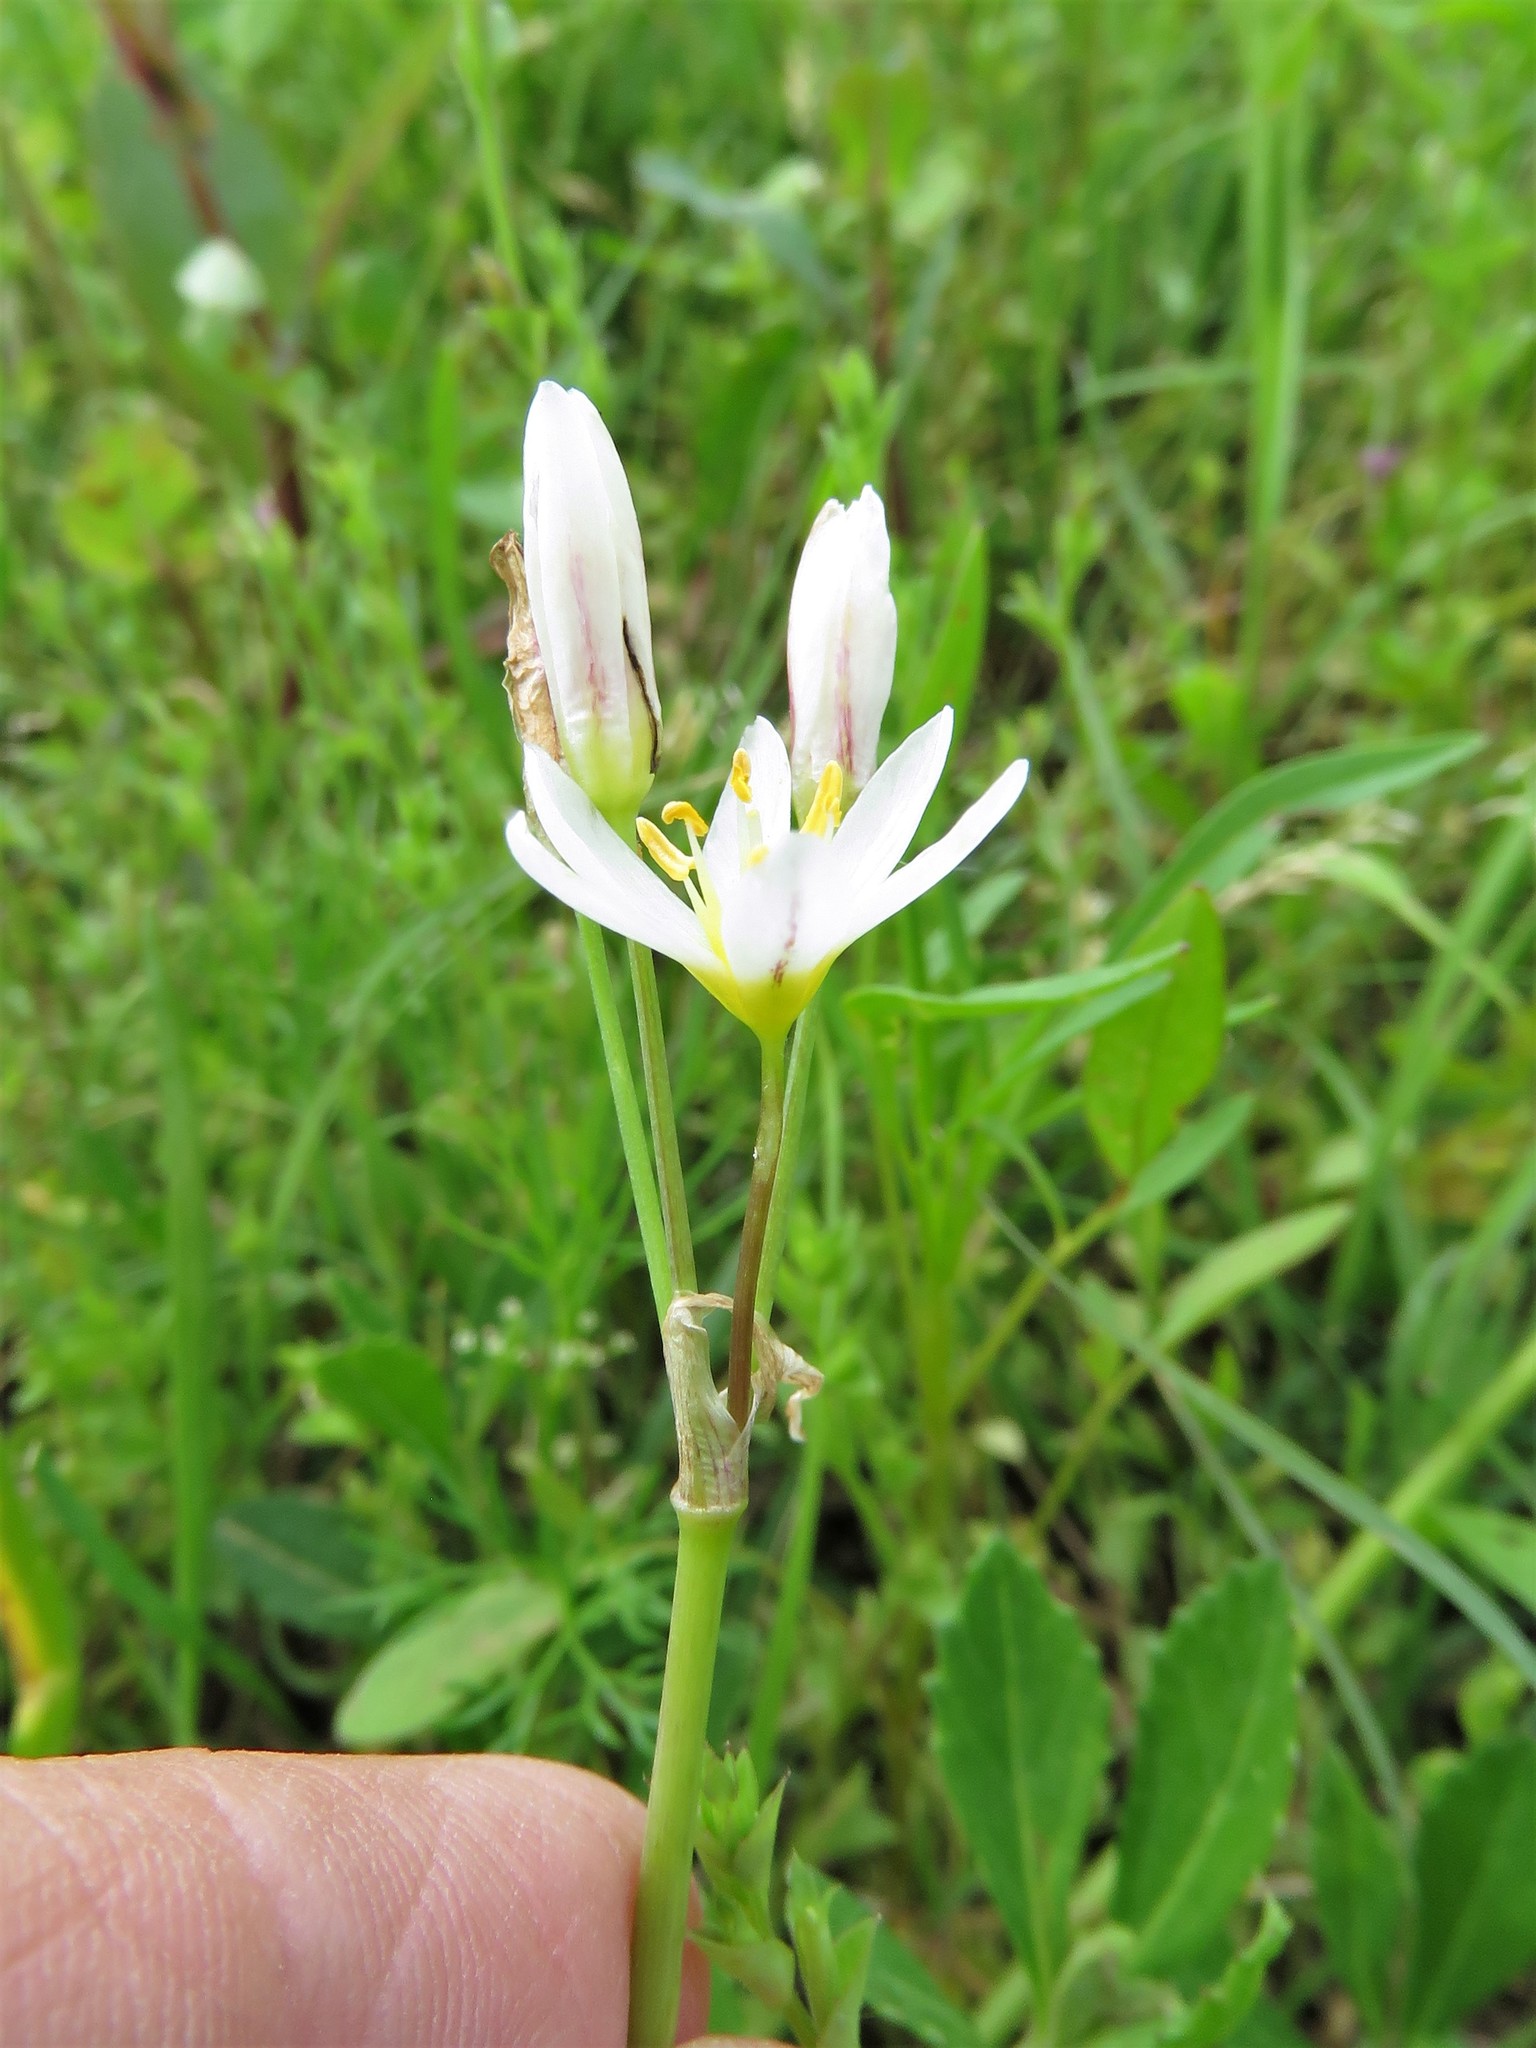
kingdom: Plantae
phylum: Tracheophyta
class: Liliopsida
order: Asparagales
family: Amaryllidaceae
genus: Nothoscordum
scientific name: Nothoscordum bivalve
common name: Crow-poison
